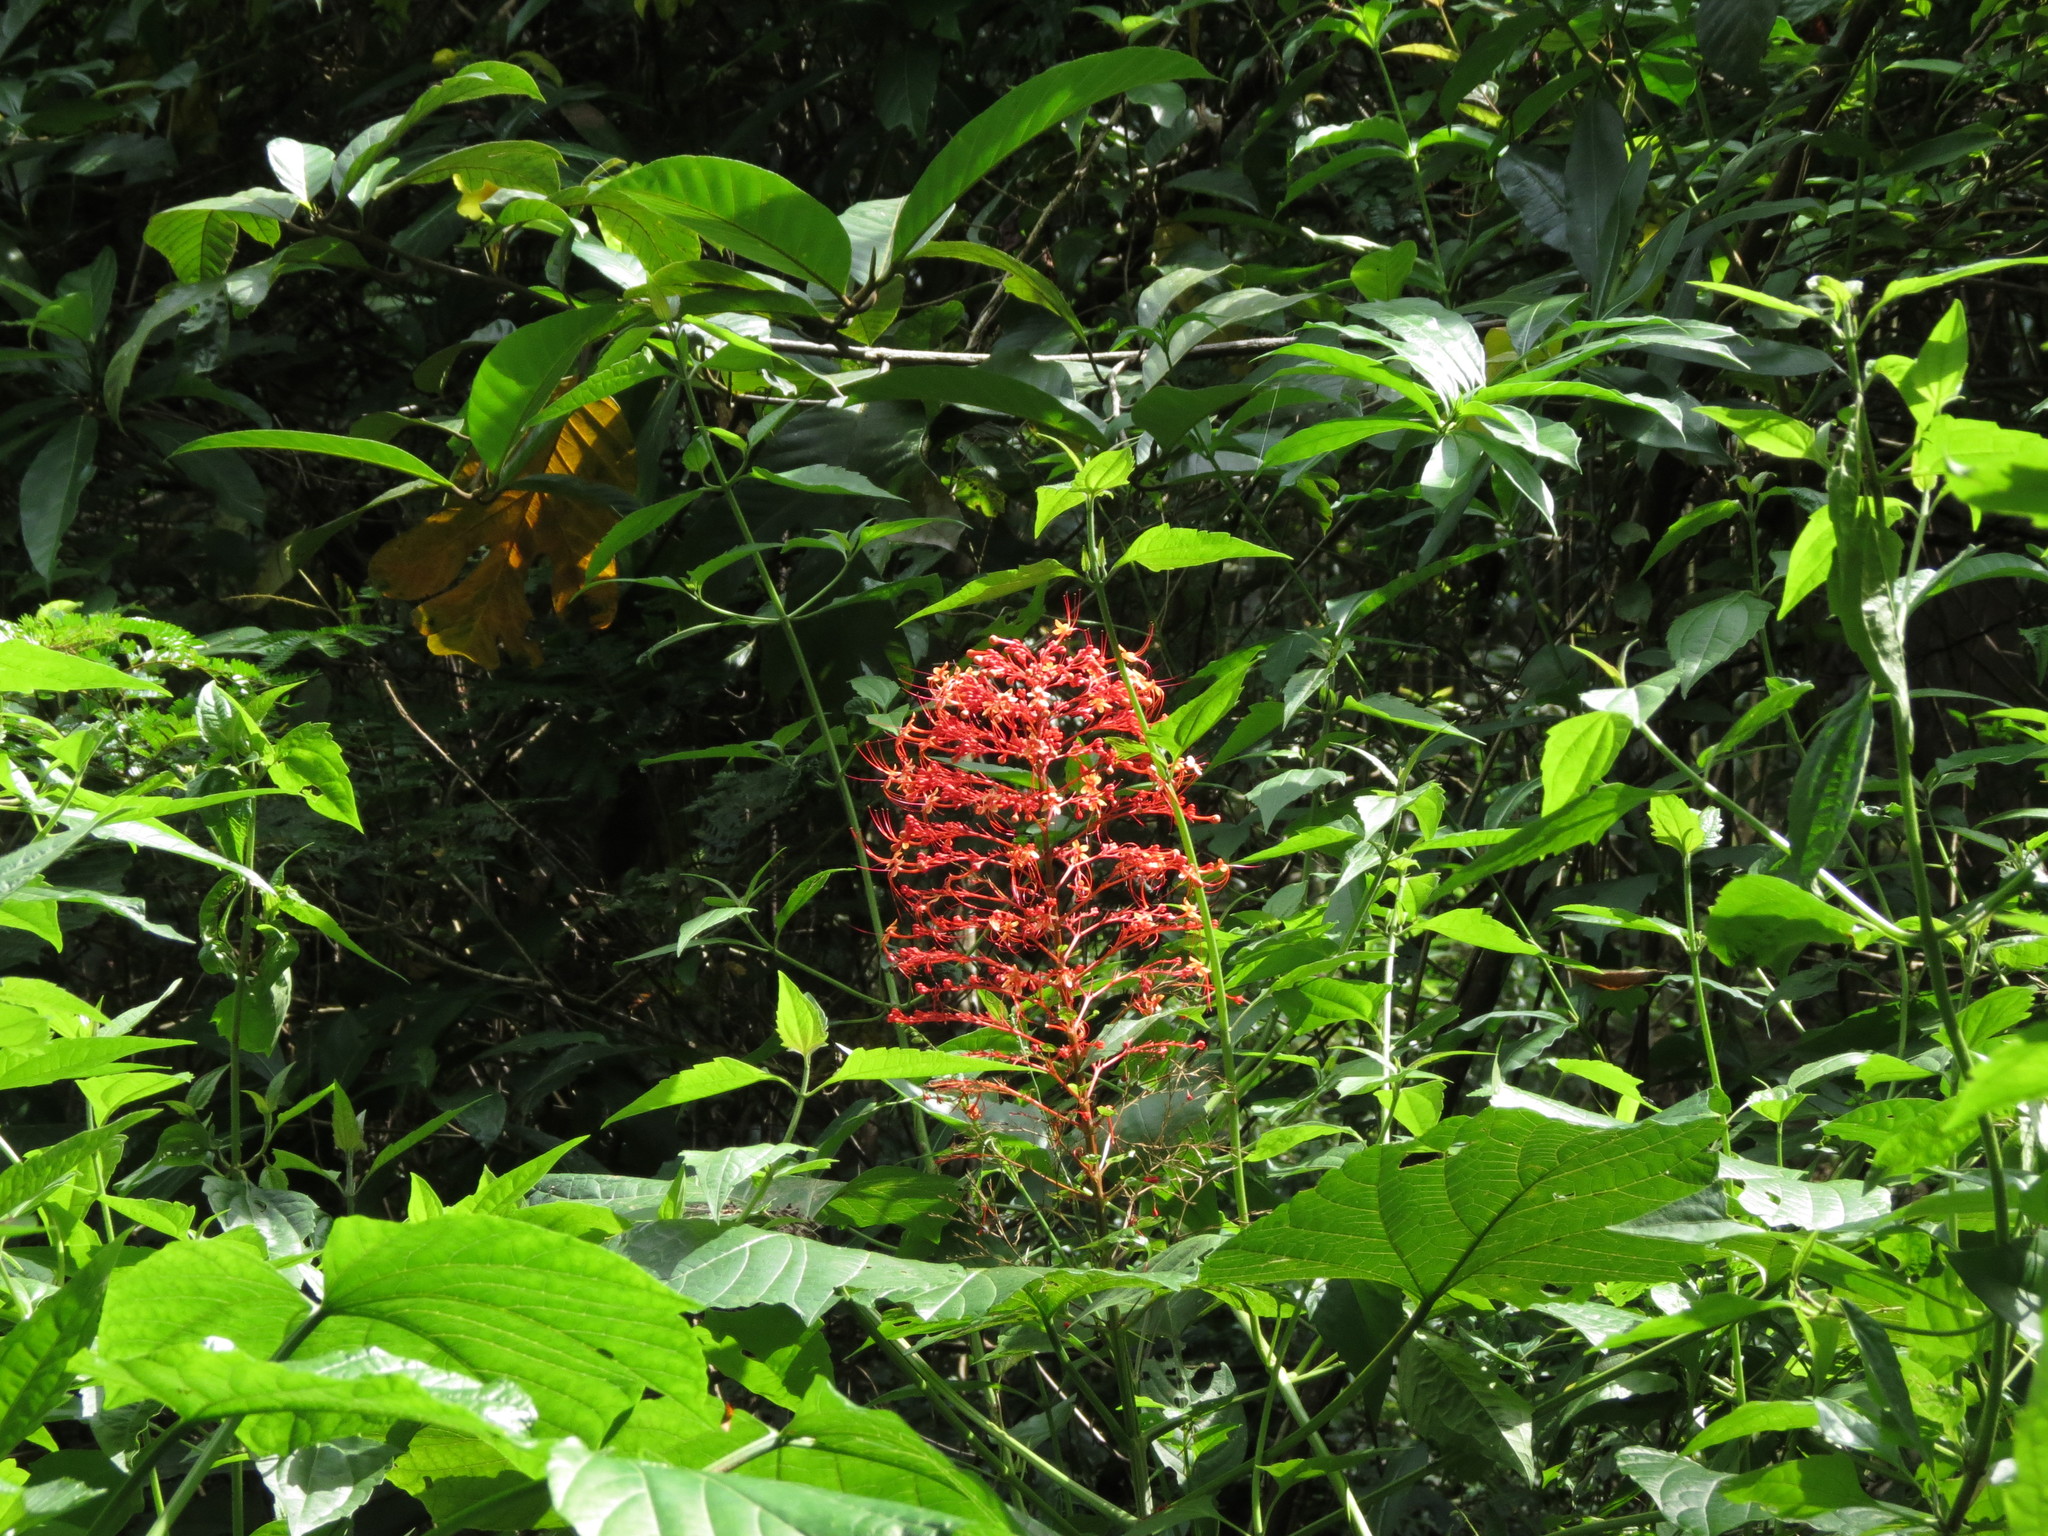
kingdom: Plantae
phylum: Tracheophyta
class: Magnoliopsida
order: Lamiales
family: Lamiaceae
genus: Clerodendrum
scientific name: Clerodendrum paniculatum
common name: Pagoda-flower
